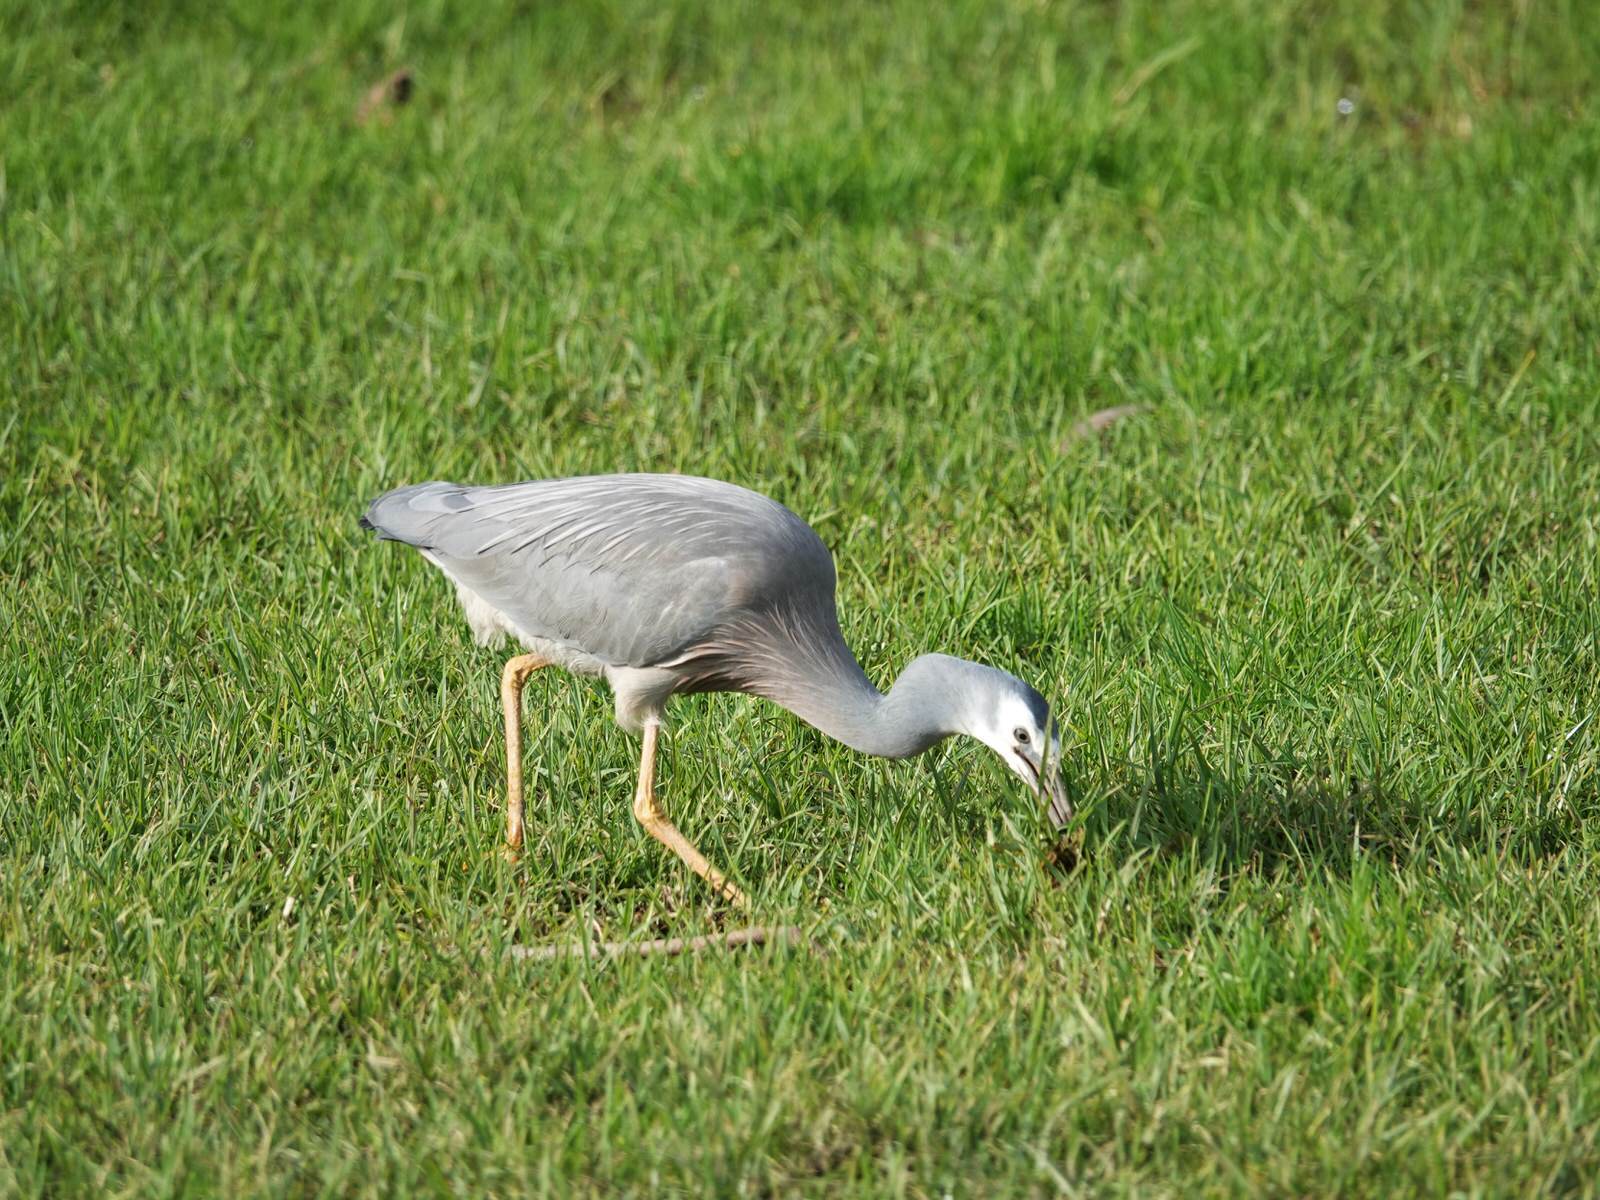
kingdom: Animalia
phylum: Chordata
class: Aves
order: Pelecaniformes
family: Ardeidae
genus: Egretta
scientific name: Egretta novaehollandiae
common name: White-faced heron
